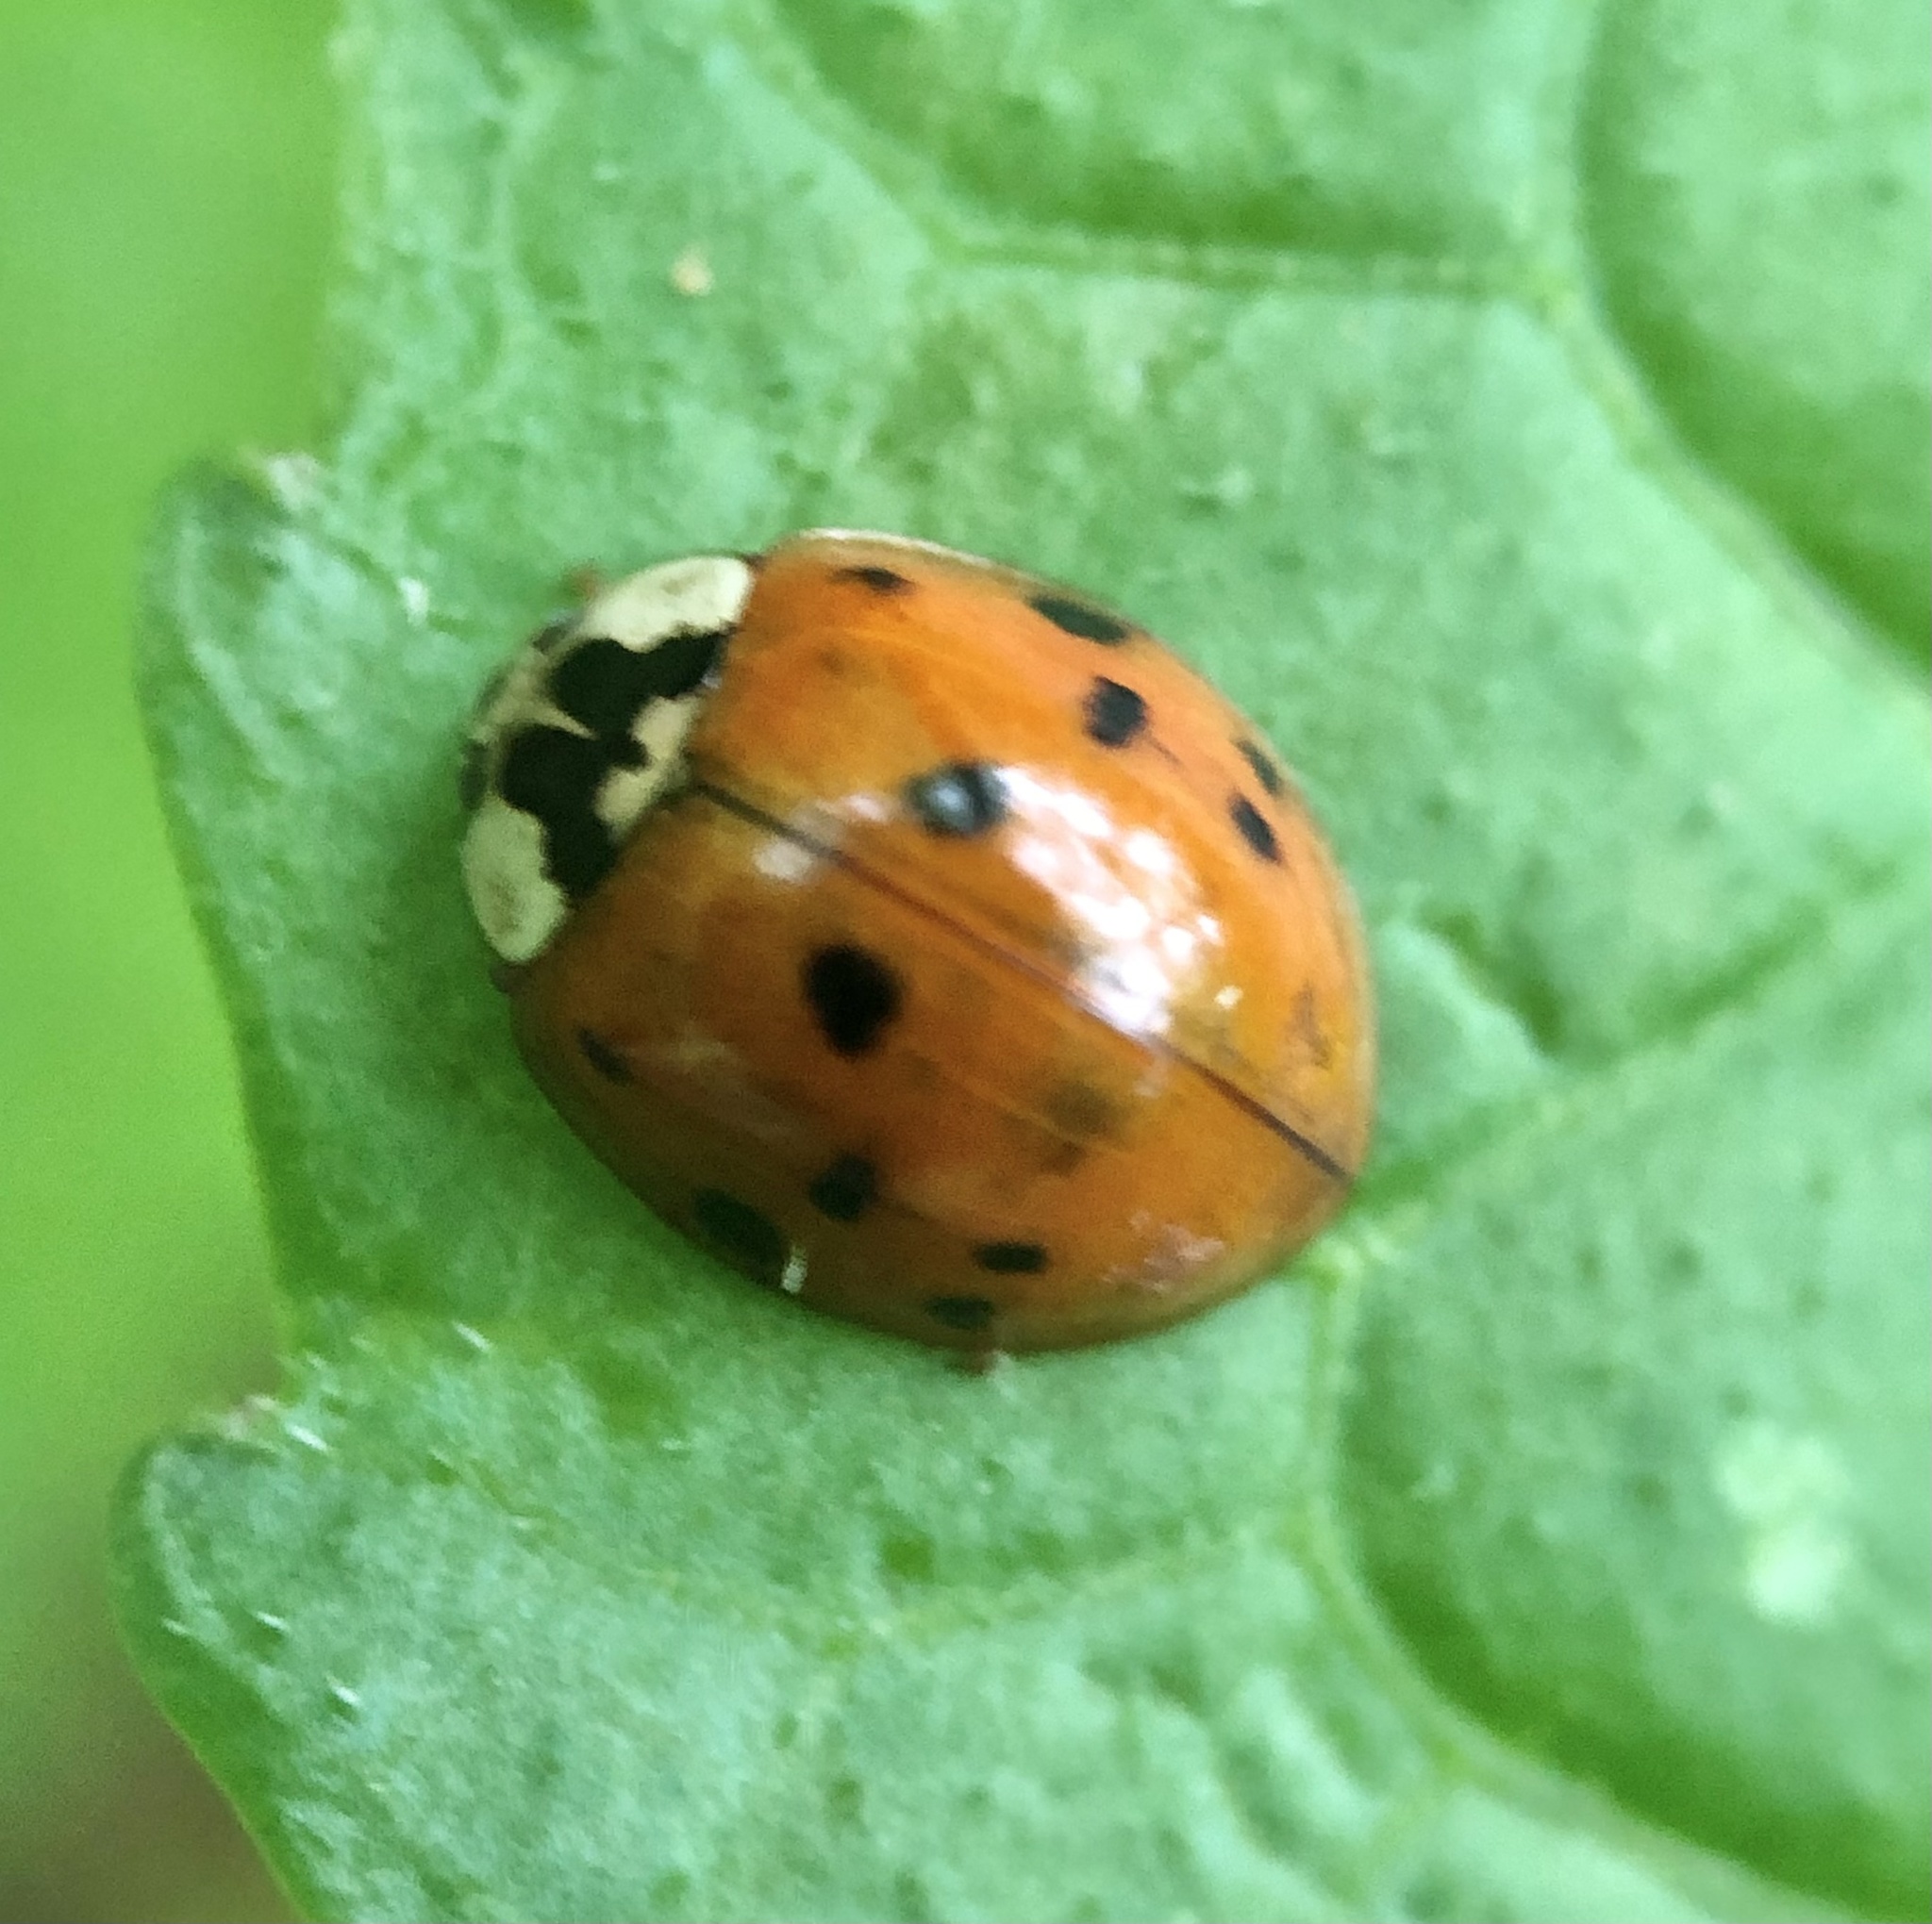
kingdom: Animalia
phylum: Arthropoda
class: Insecta
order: Coleoptera
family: Coccinellidae
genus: Harmonia
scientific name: Harmonia axyridis
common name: Harlequin ladybird
